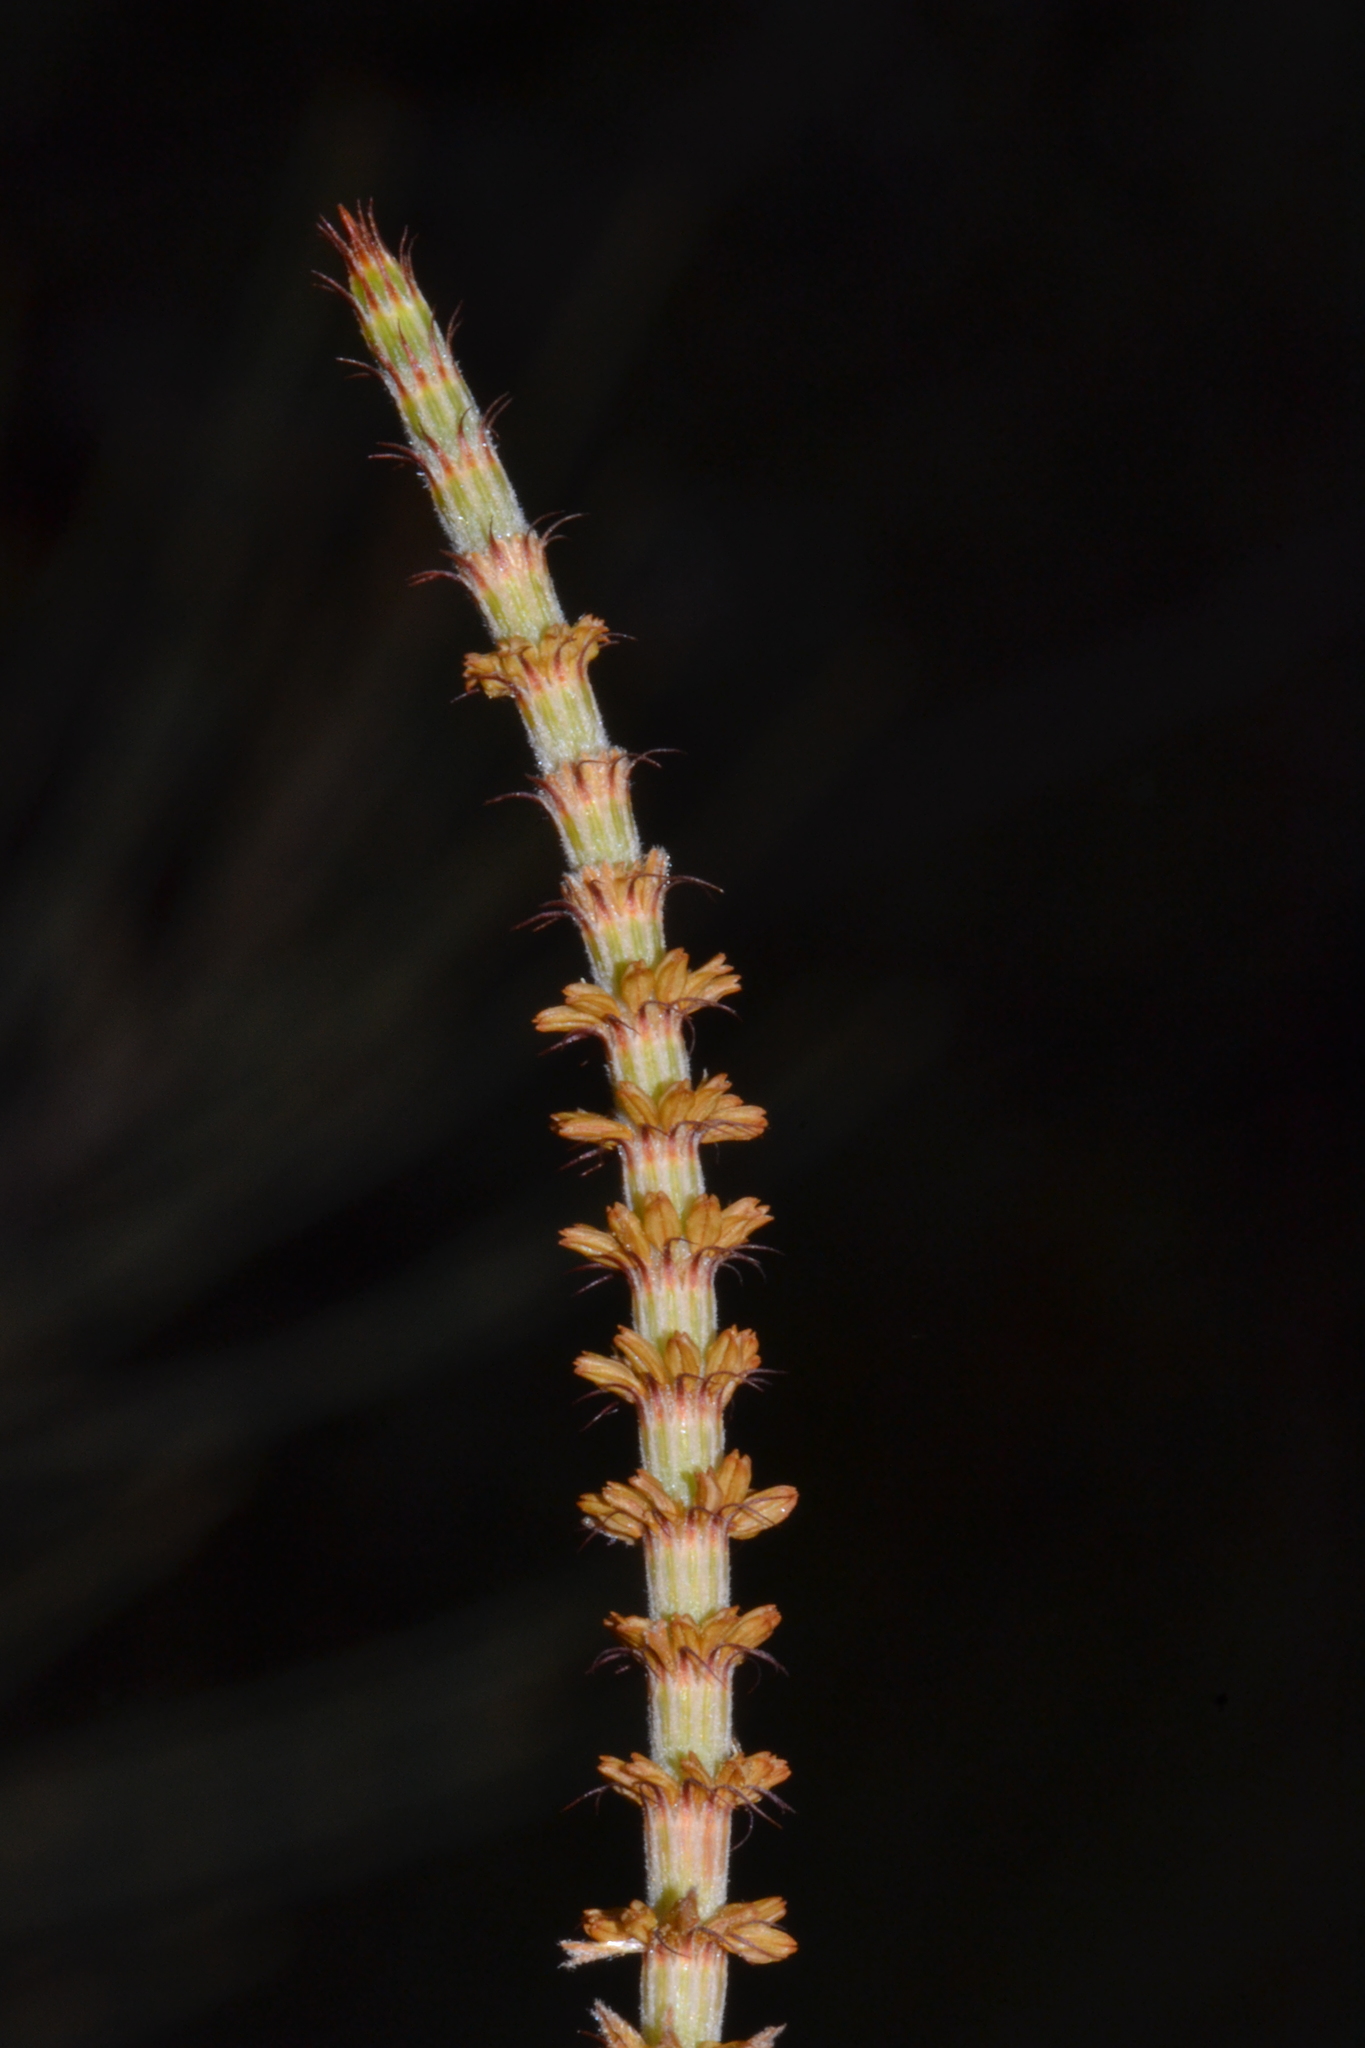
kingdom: Plantae
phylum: Tracheophyta
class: Magnoliopsida
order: Fagales
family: Casuarinaceae
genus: Allocasuarina
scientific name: Allocasuarina acutivalvis
